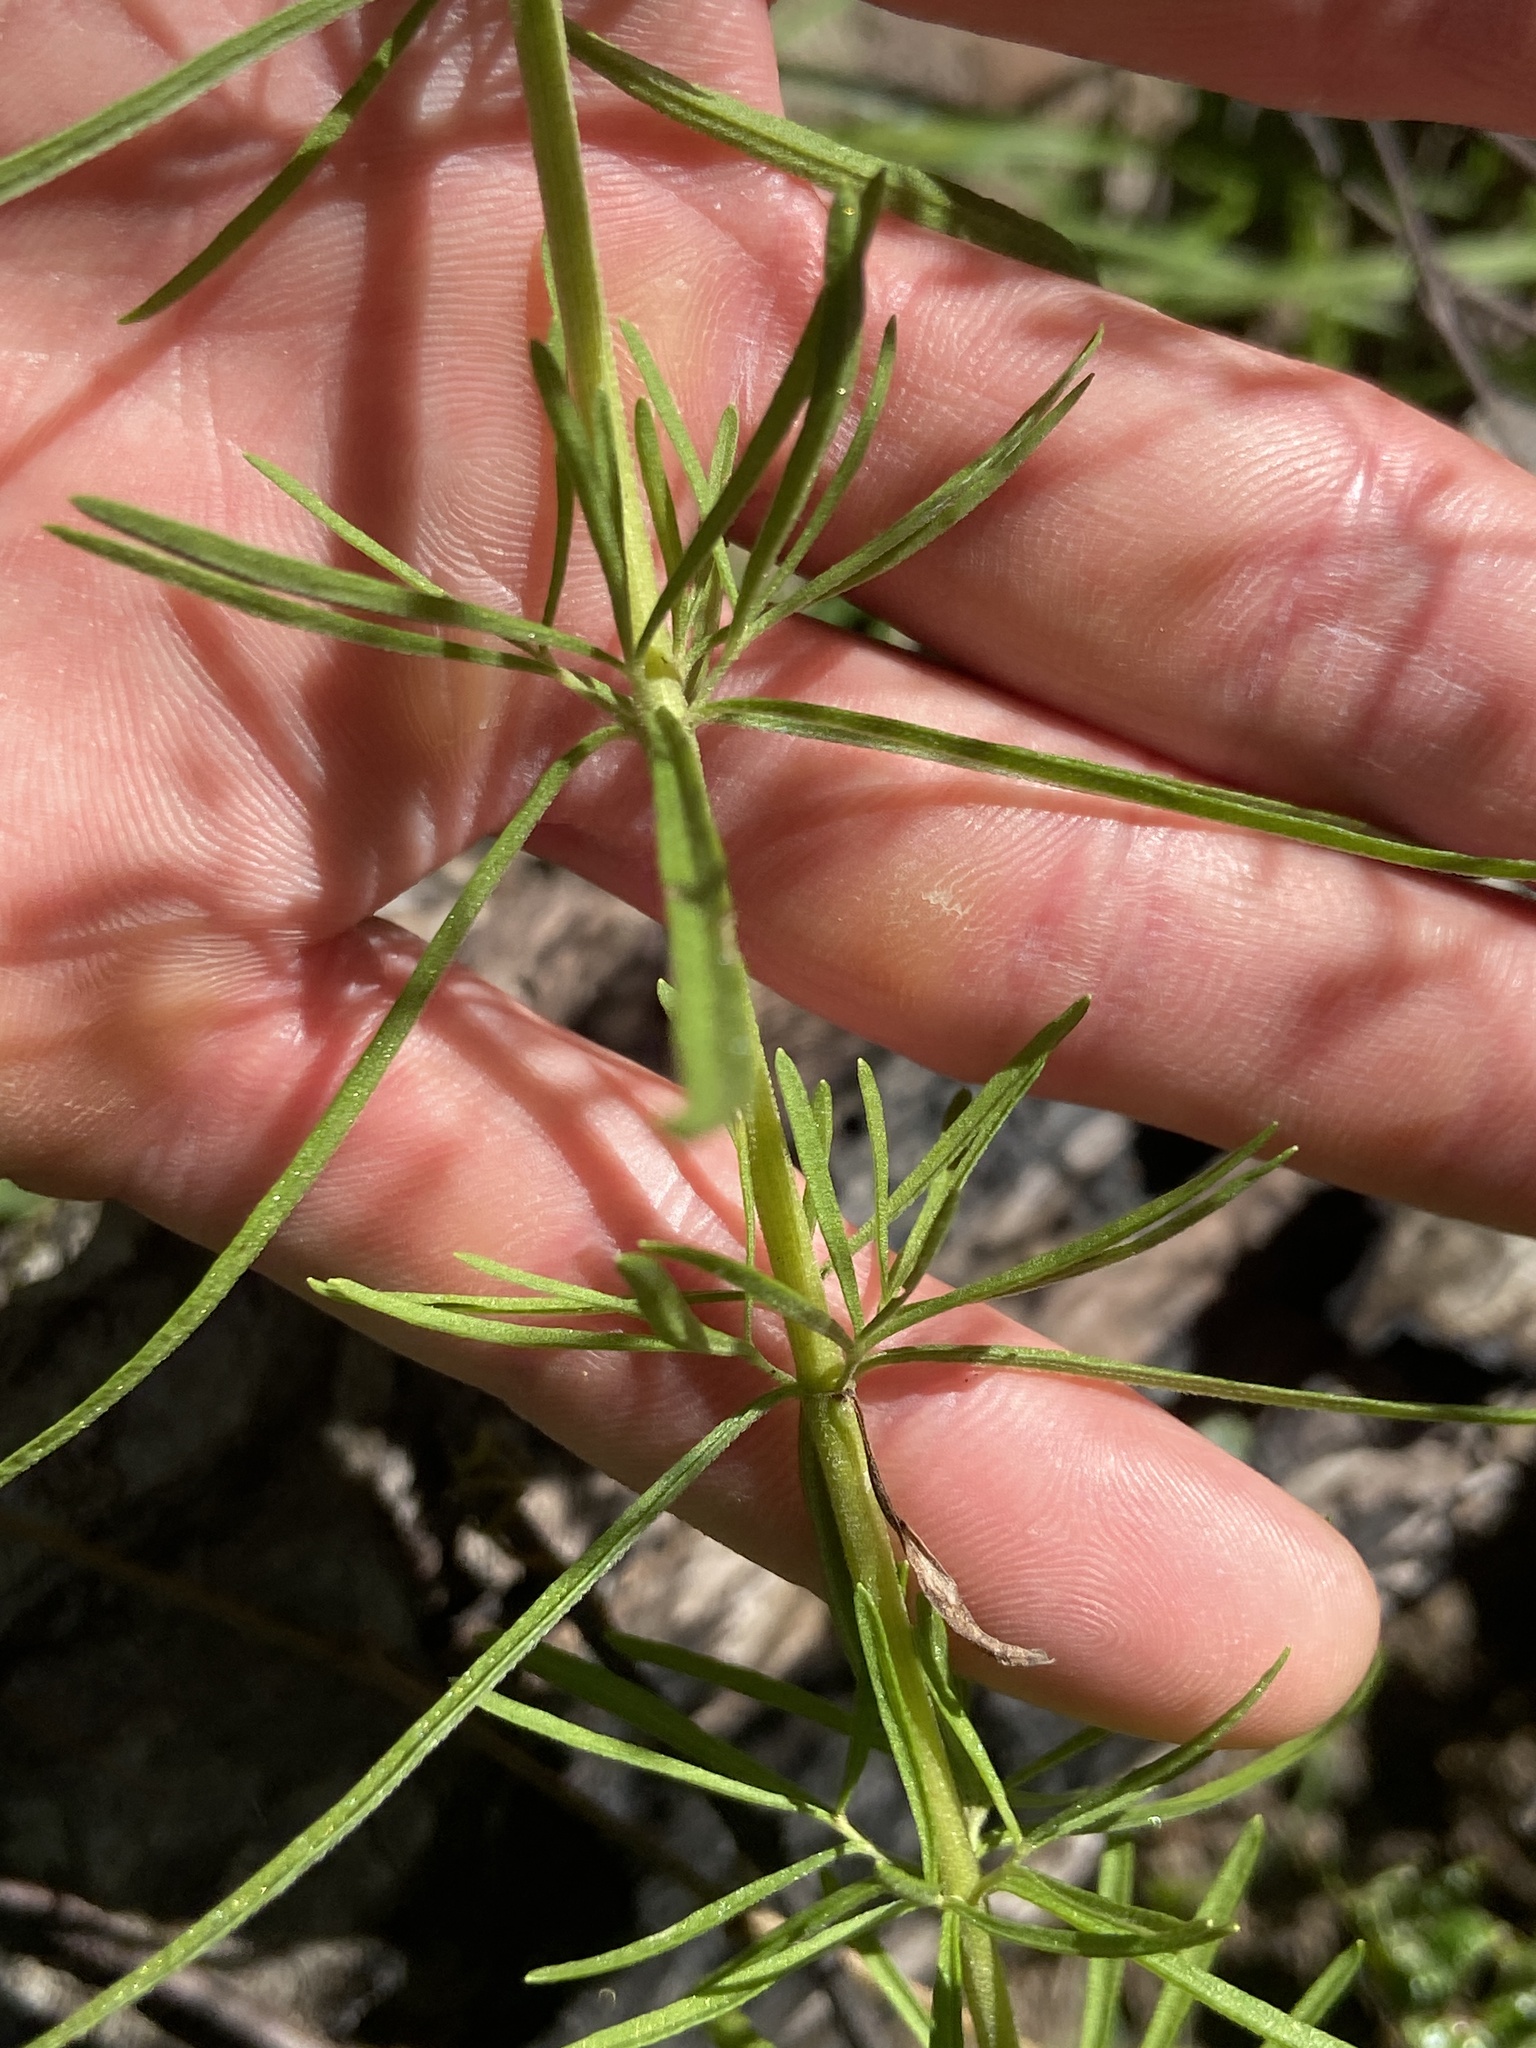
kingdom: Plantae
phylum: Tracheophyta
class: Magnoliopsida
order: Asterales
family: Asteraceae
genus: Eupatorium
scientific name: Eupatorium hyssopifolium
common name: Hyssop-leaf thoroughwort
